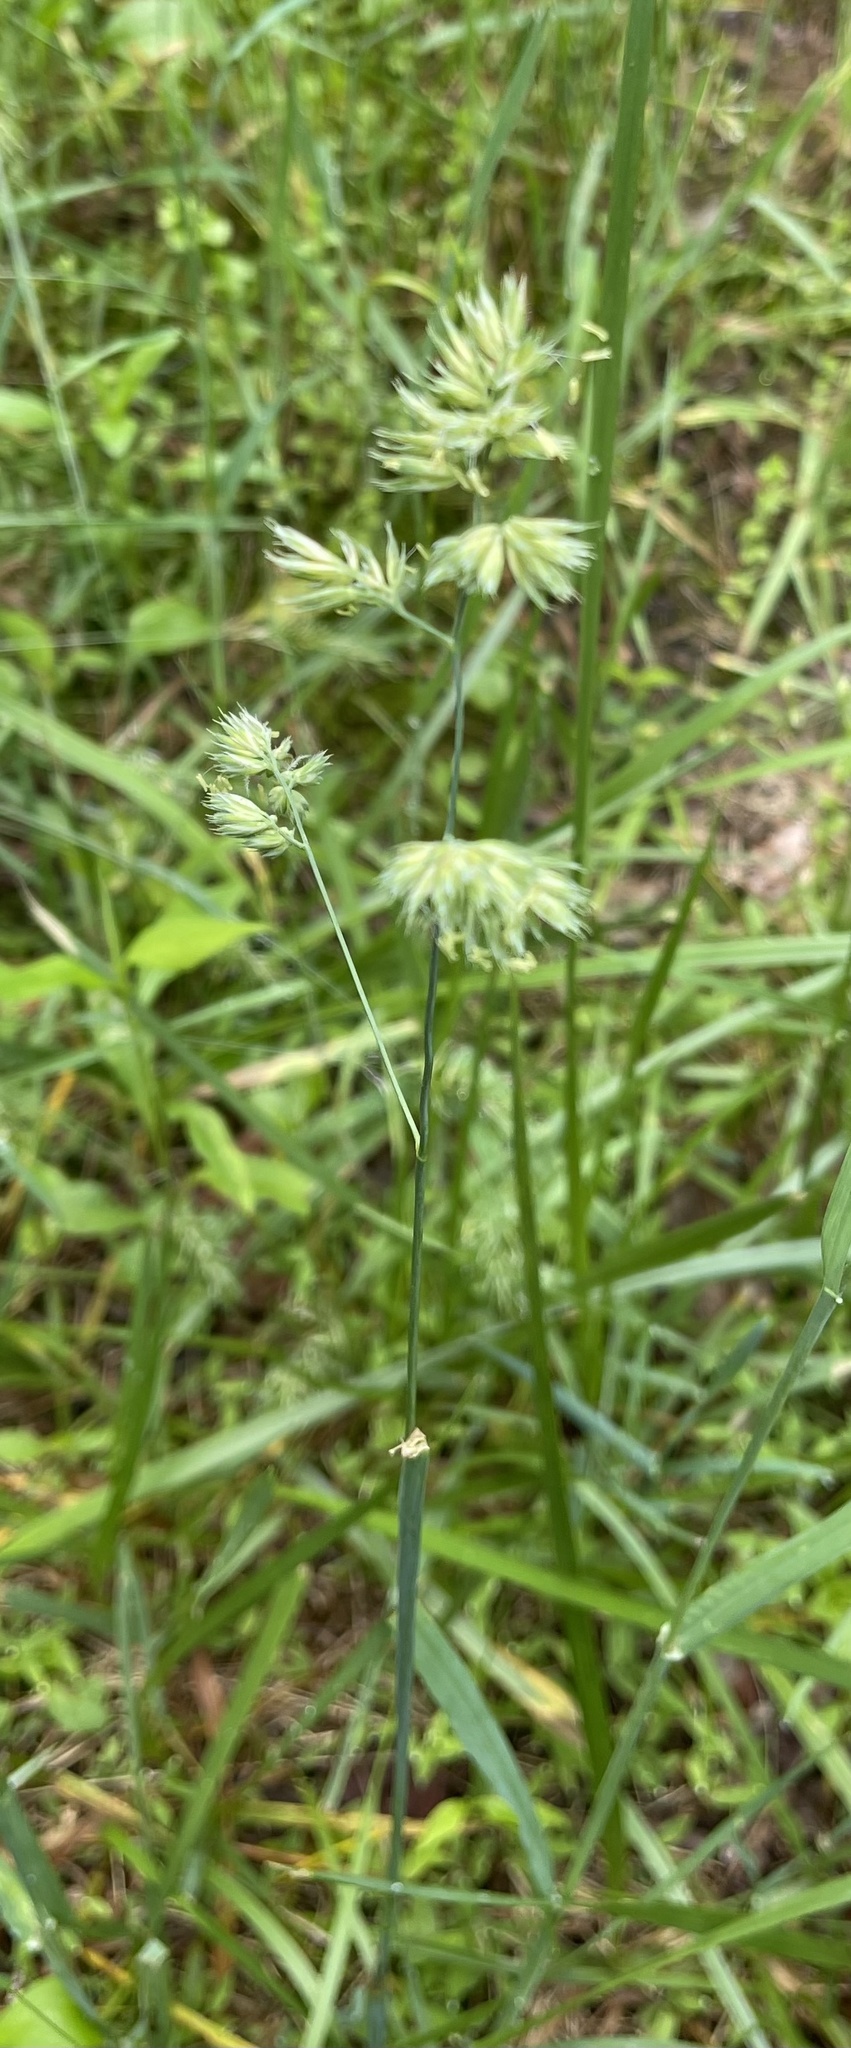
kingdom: Plantae
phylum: Tracheophyta
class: Liliopsida
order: Poales
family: Poaceae
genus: Dactylis
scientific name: Dactylis glomerata
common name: Orchardgrass
